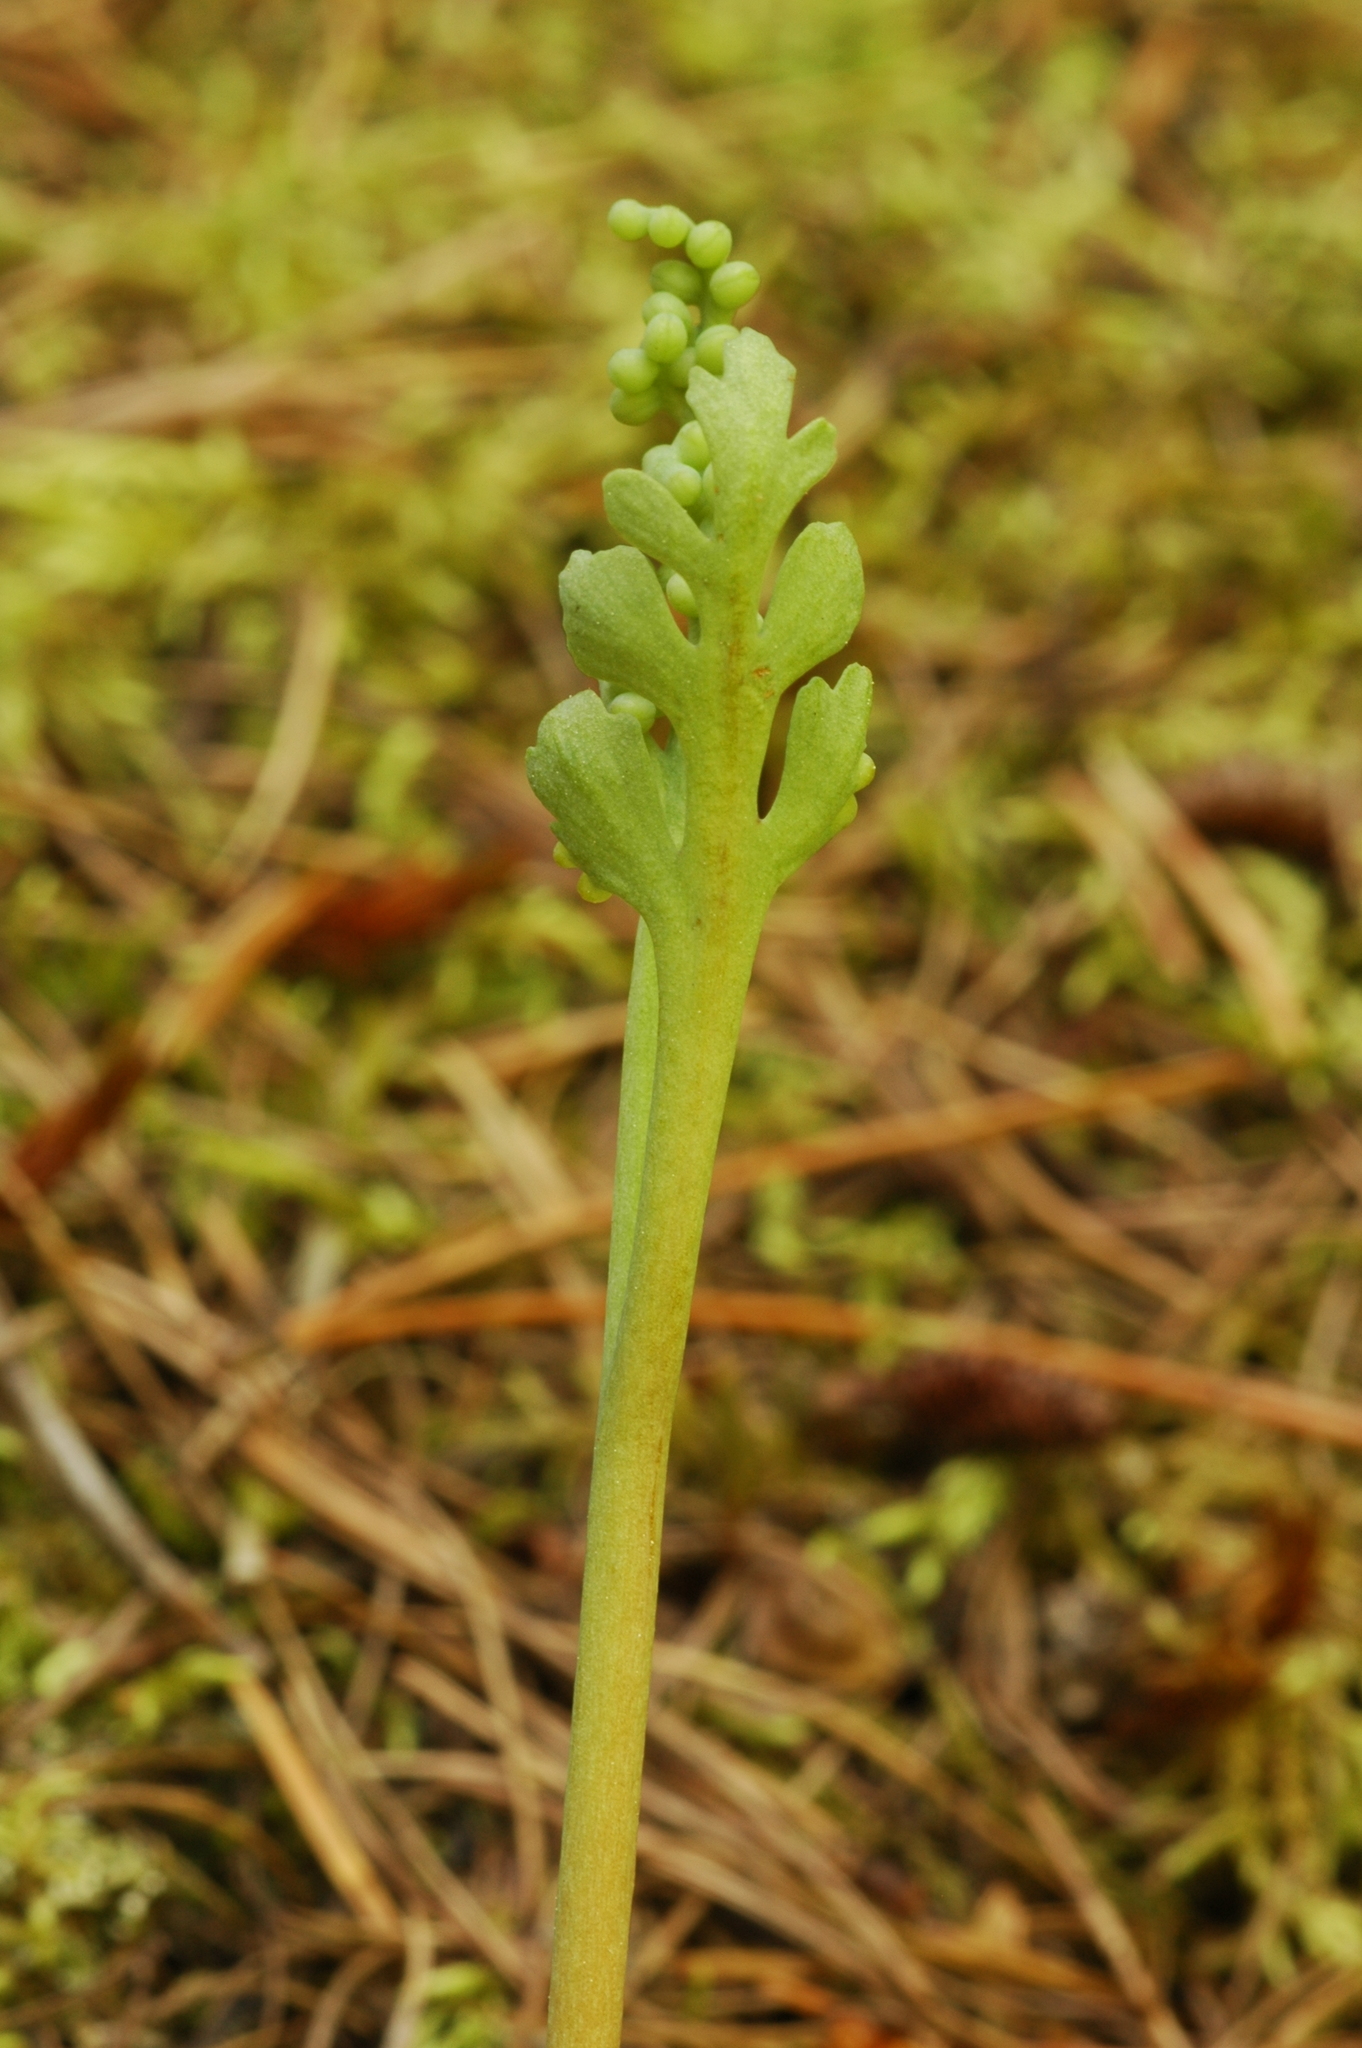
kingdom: Plantae
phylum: Tracheophyta
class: Polypodiopsida
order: Ophioglossales
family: Ophioglossaceae
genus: Botrychium
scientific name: Botrychium pedunculosum
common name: Stalked moonwort
